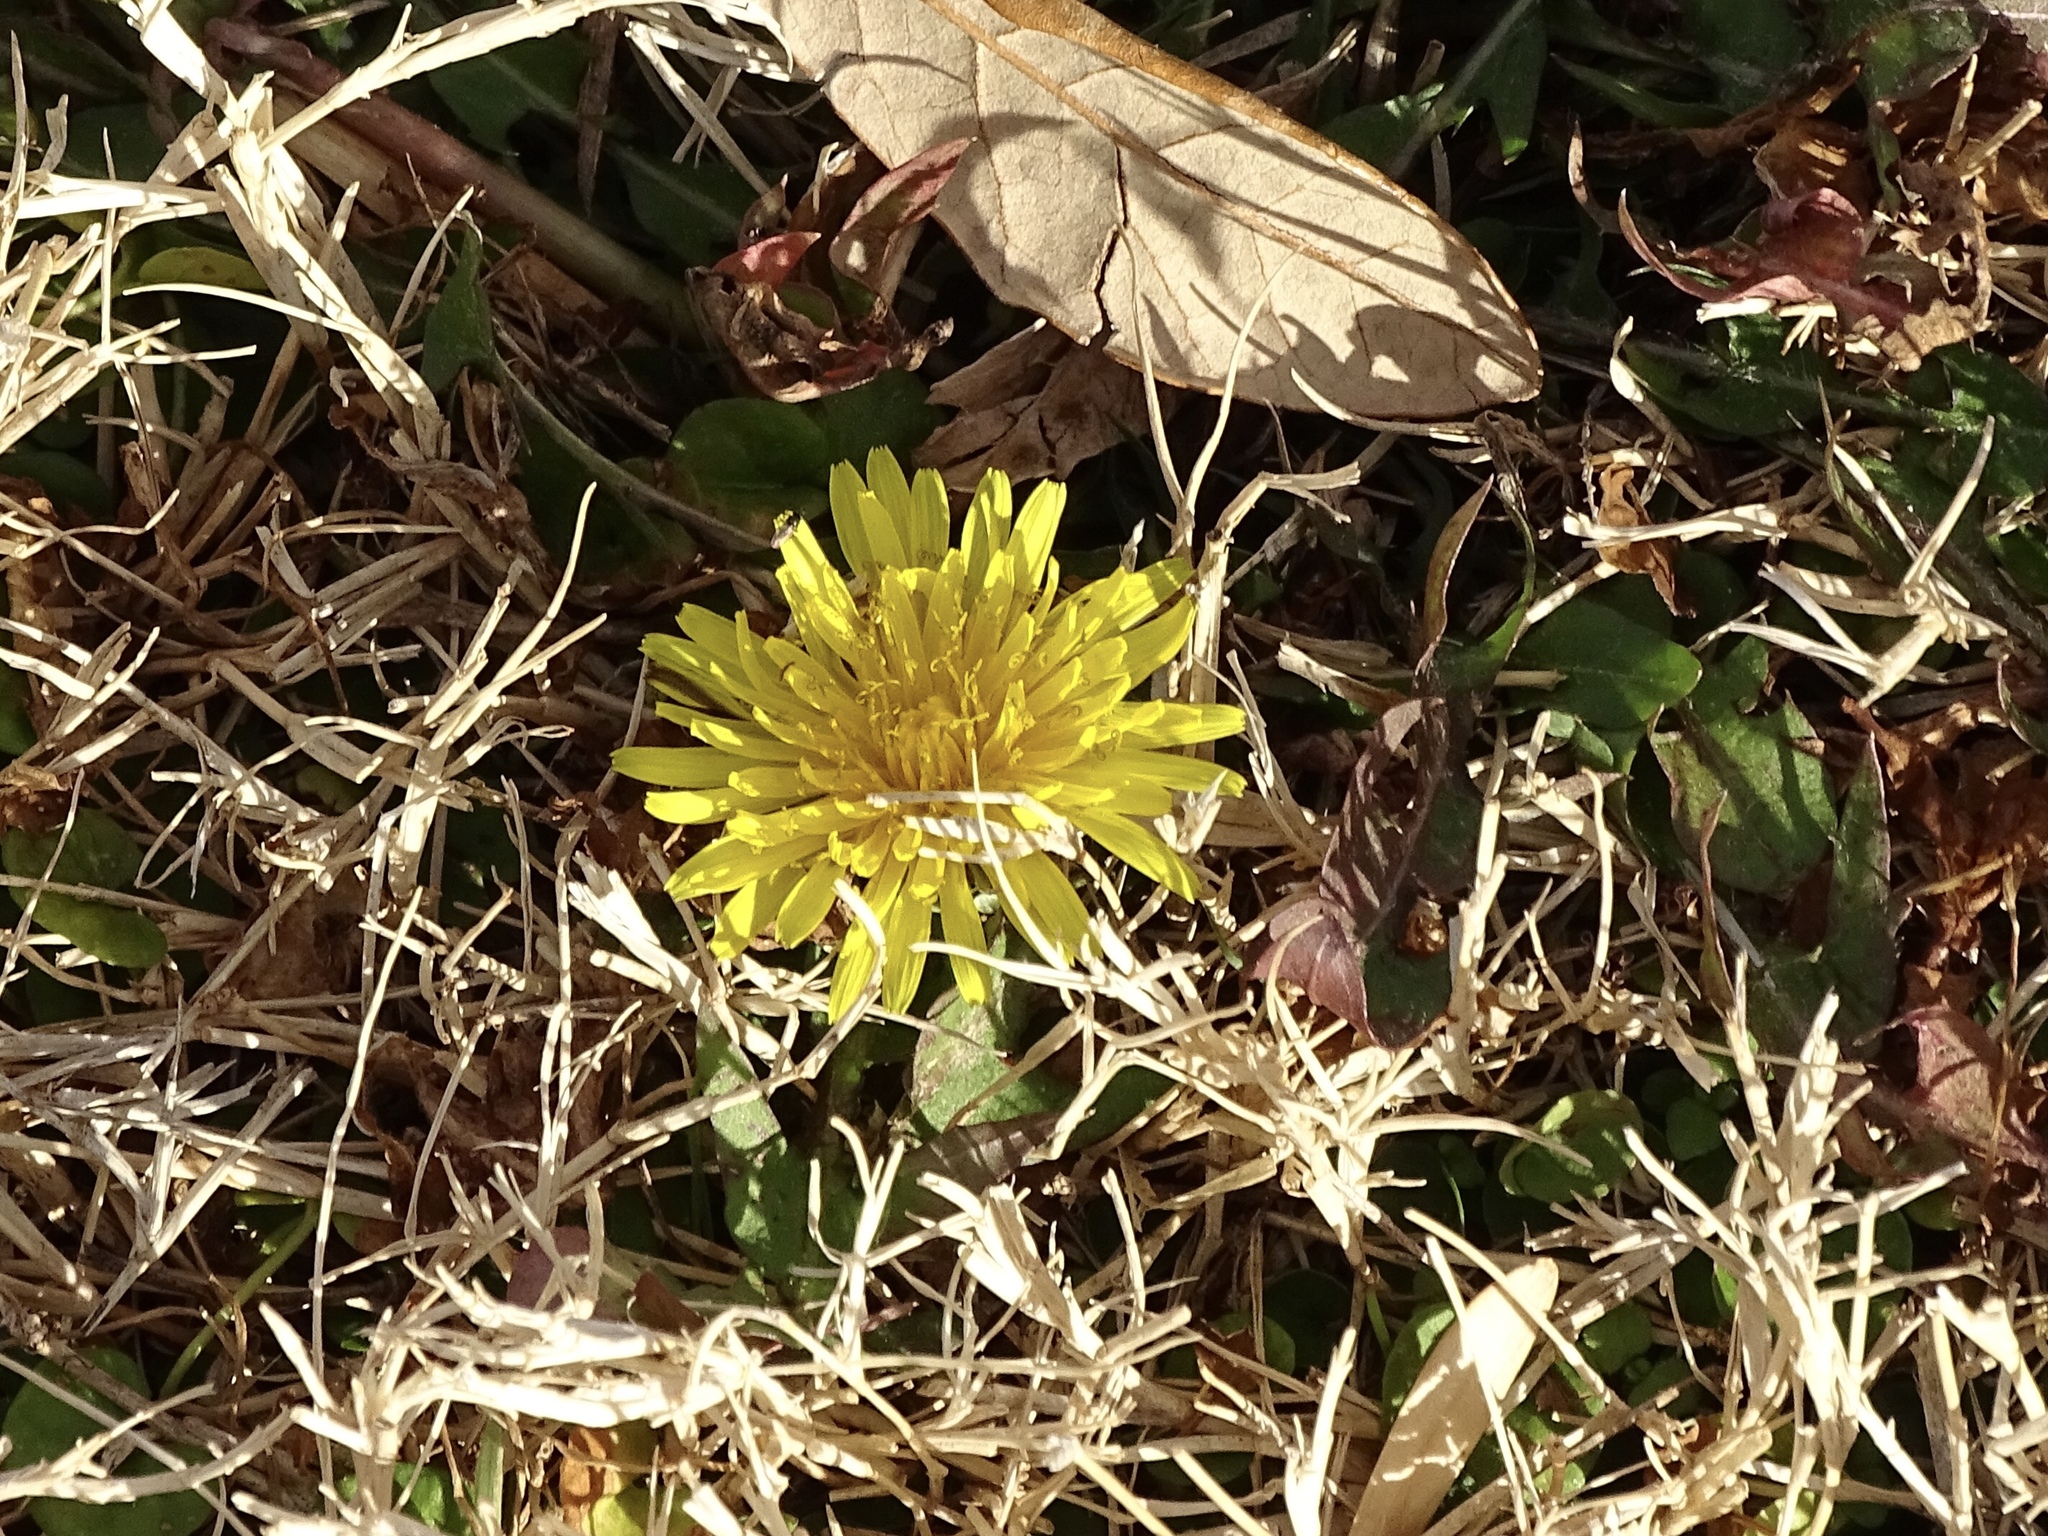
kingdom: Plantae
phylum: Tracheophyta
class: Magnoliopsida
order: Asterales
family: Asteraceae
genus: Taraxacum
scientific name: Taraxacum officinale
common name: Common dandelion
